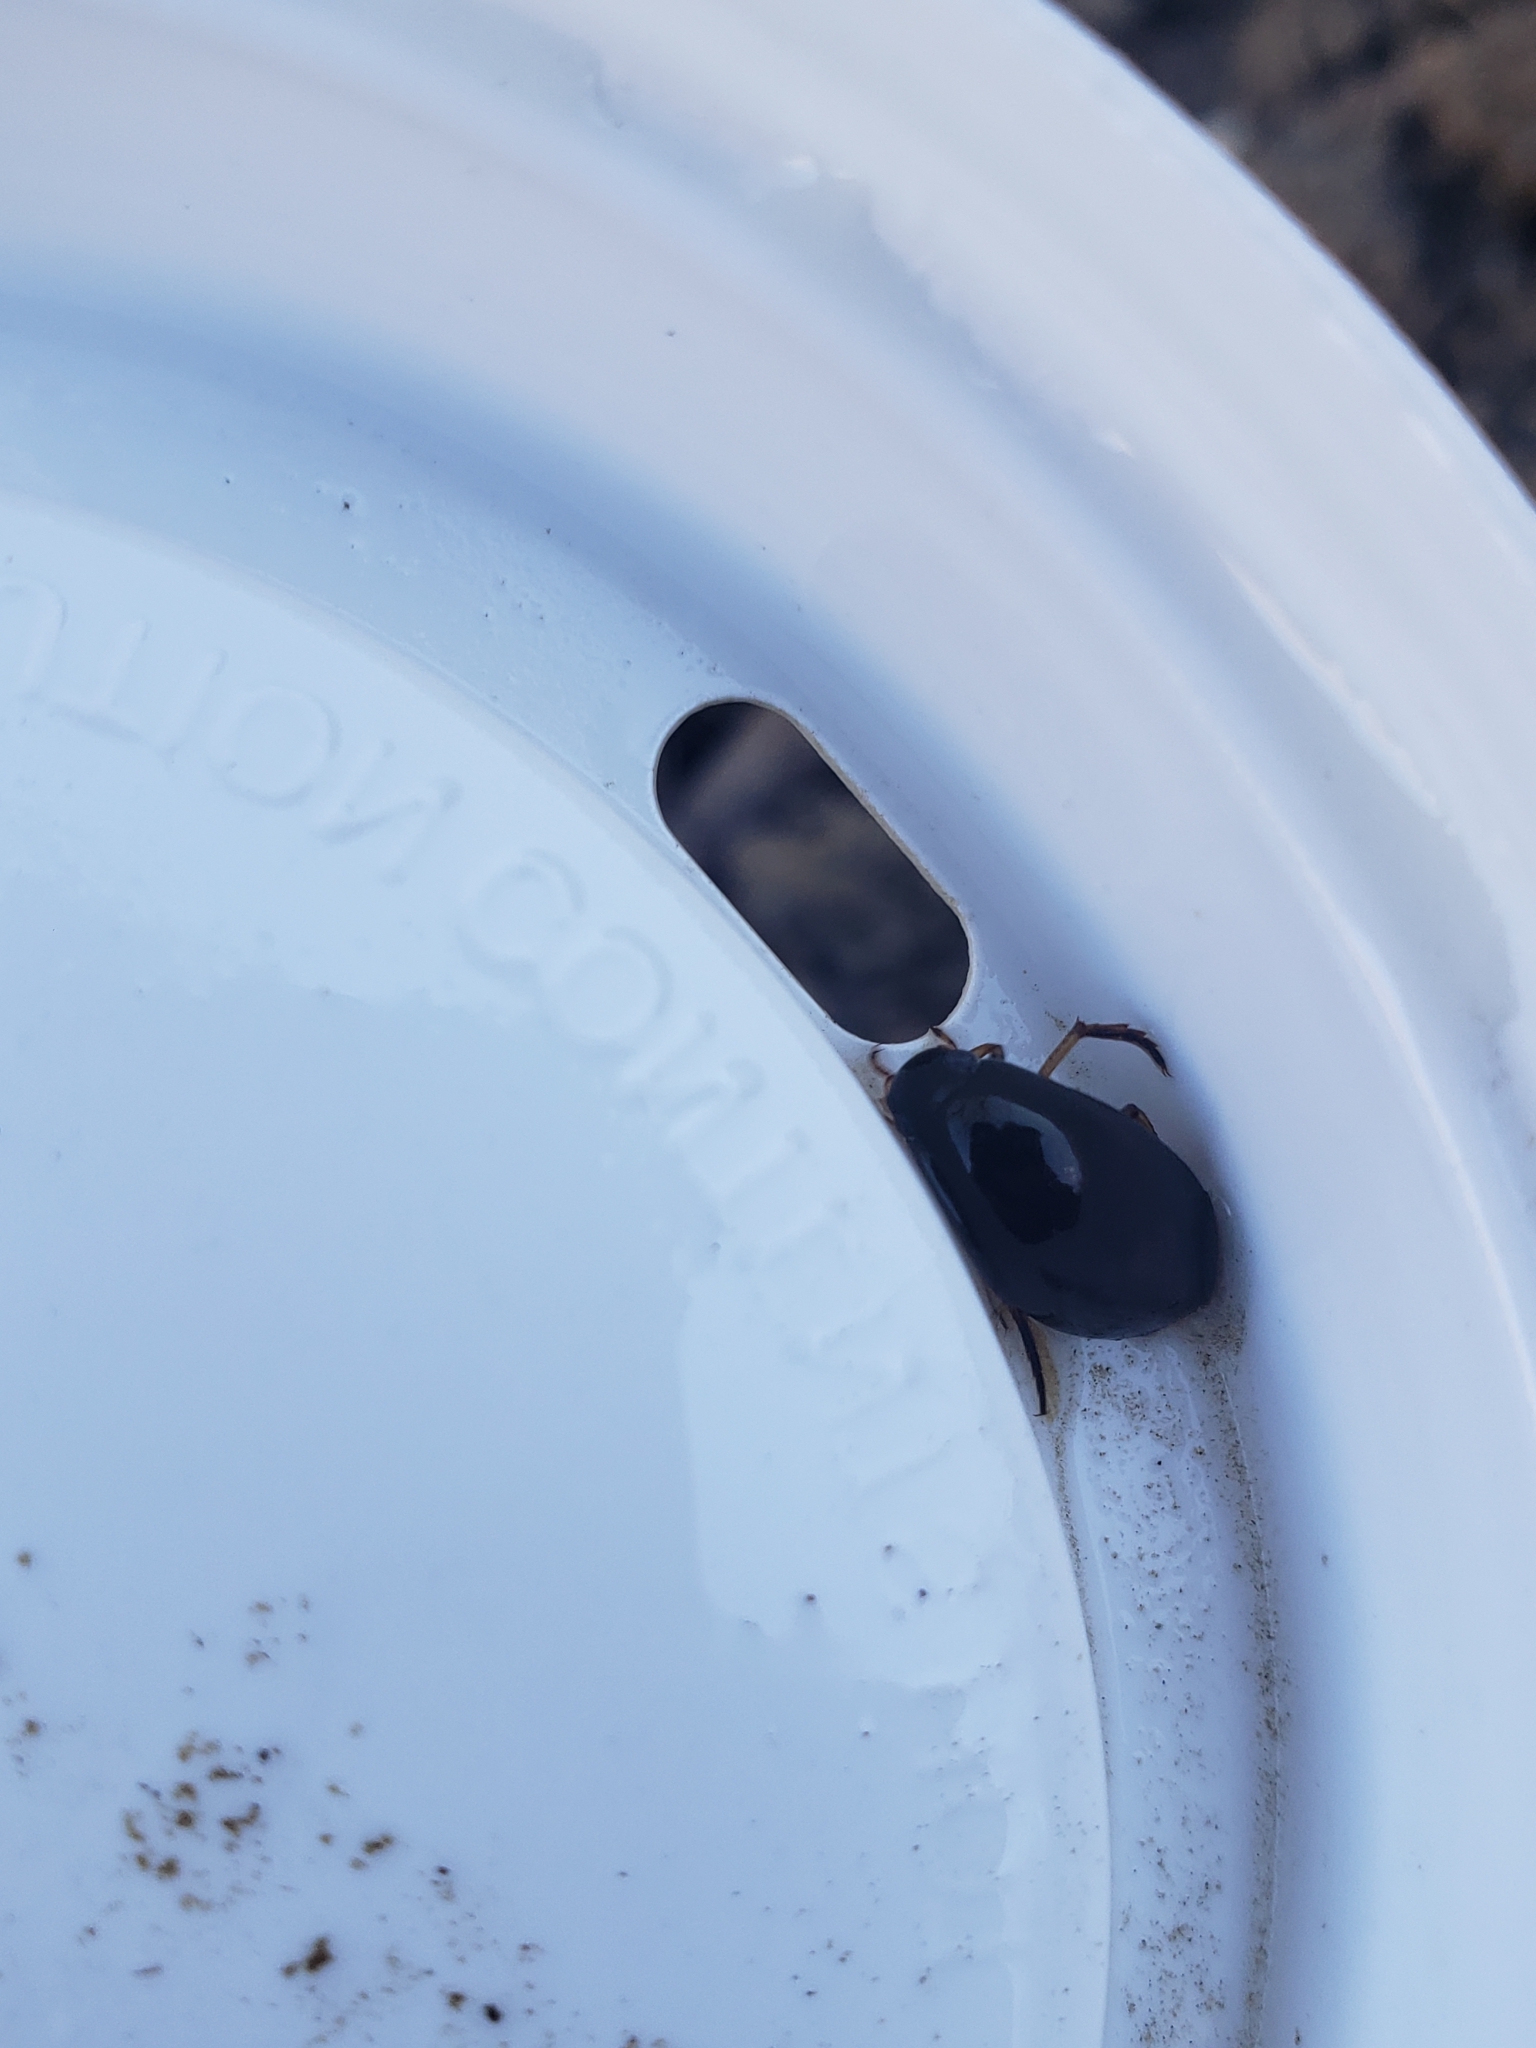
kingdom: Animalia
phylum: Arthropoda
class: Insecta
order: Coleoptera
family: Hydrophilidae
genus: Tropisternus
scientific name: Tropisternus
